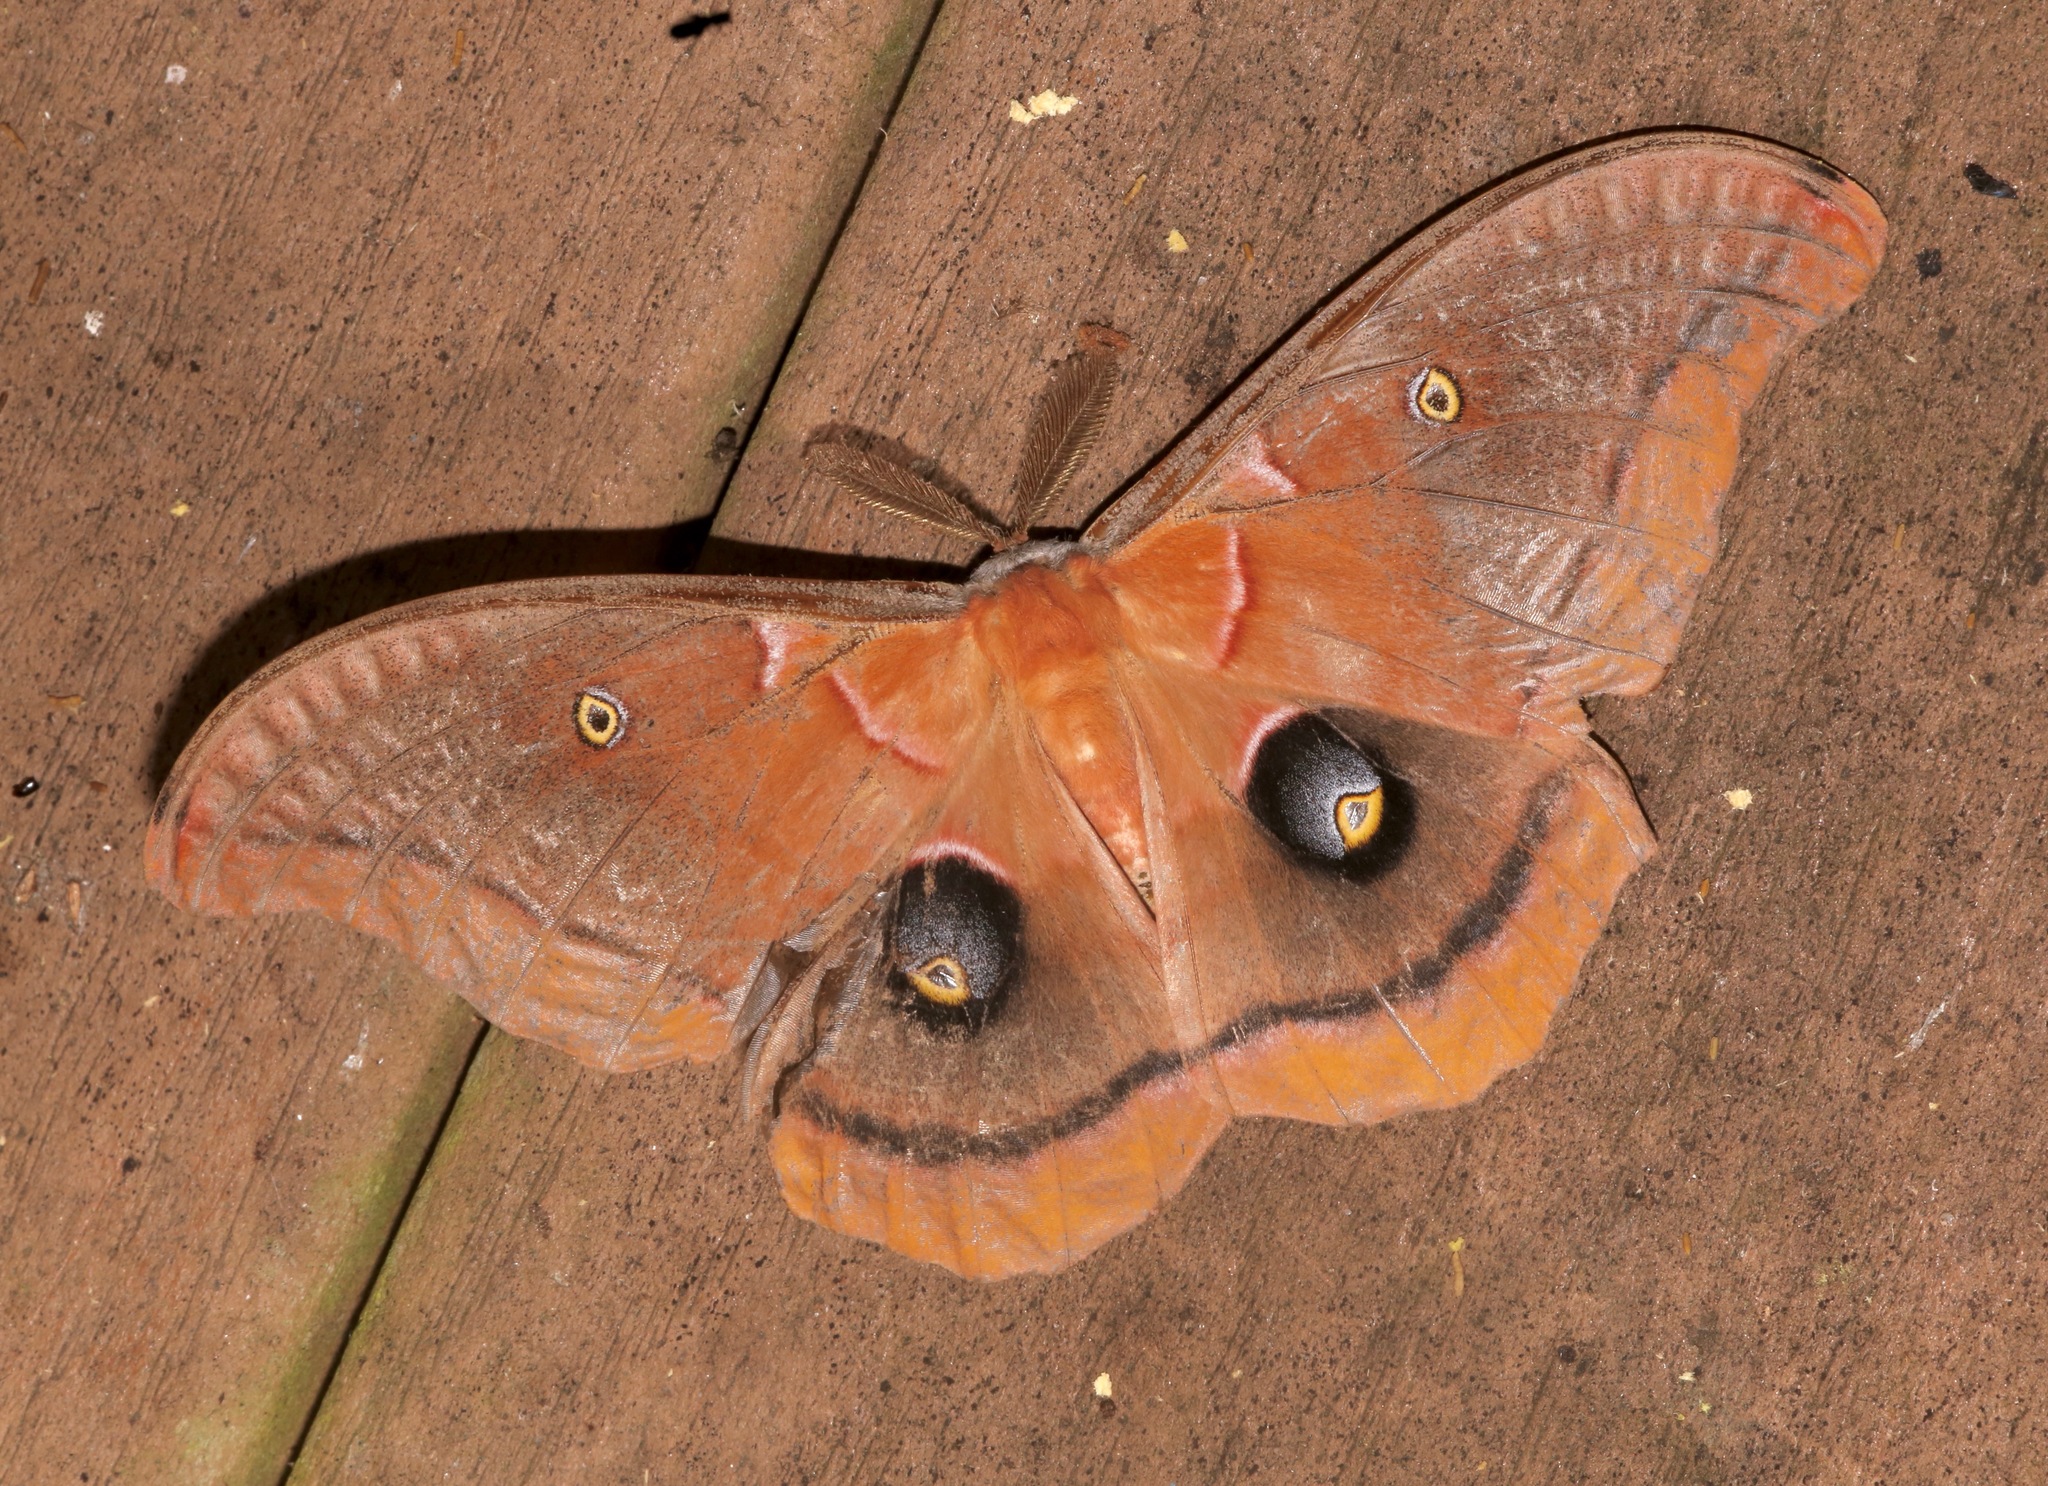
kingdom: Animalia
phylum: Arthropoda
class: Insecta
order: Lepidoptera
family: Saturniidae
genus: Antheraea
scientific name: Antheraea polyphemus
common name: Polyphemus moth
